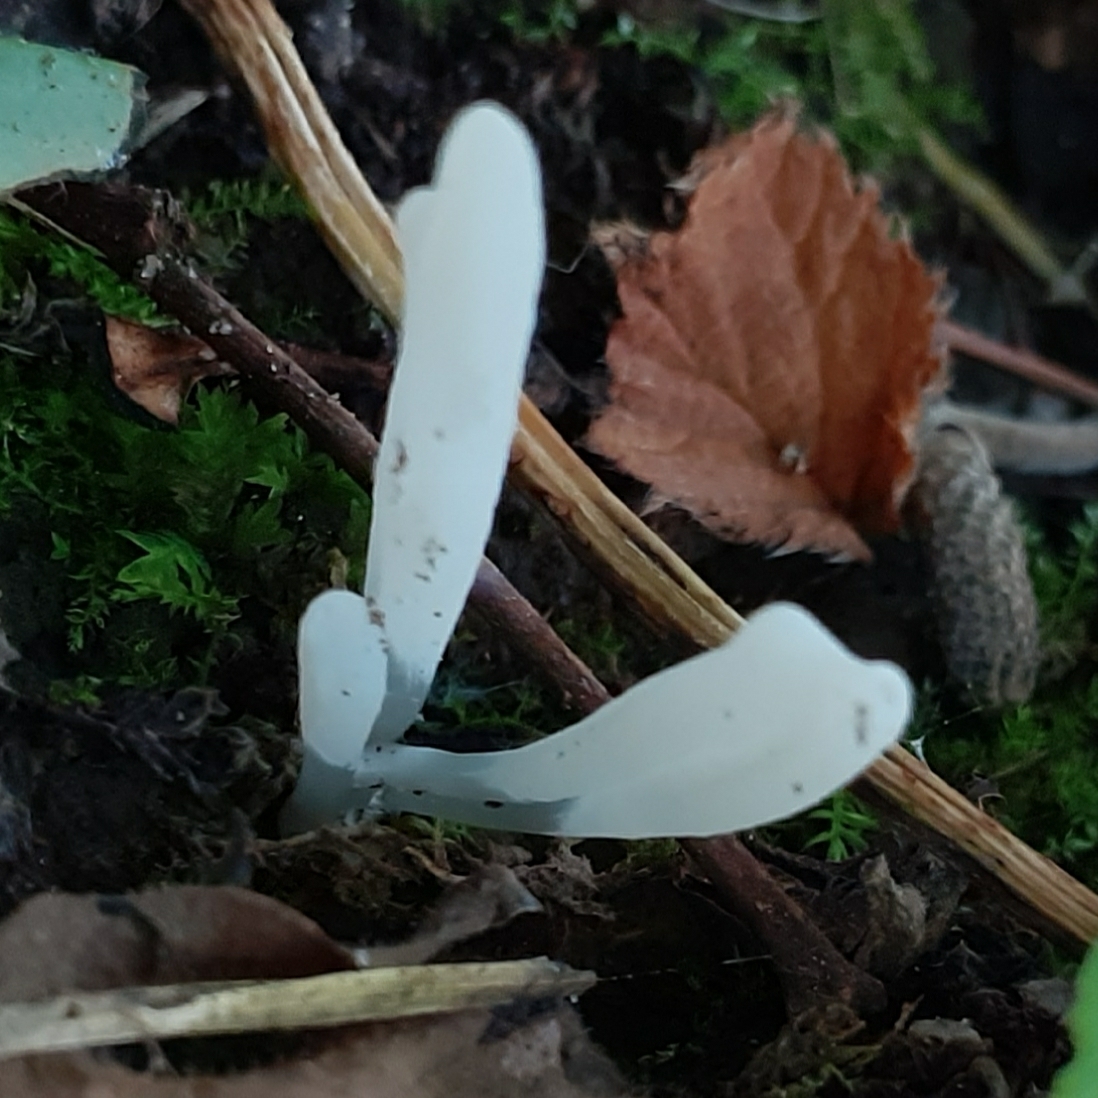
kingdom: Fungi
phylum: Basidiomycota
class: Agaricomycetes
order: Agaricales
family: Clavariaceae
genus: Clavaria
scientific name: Clavaria fragilis
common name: White spindles
